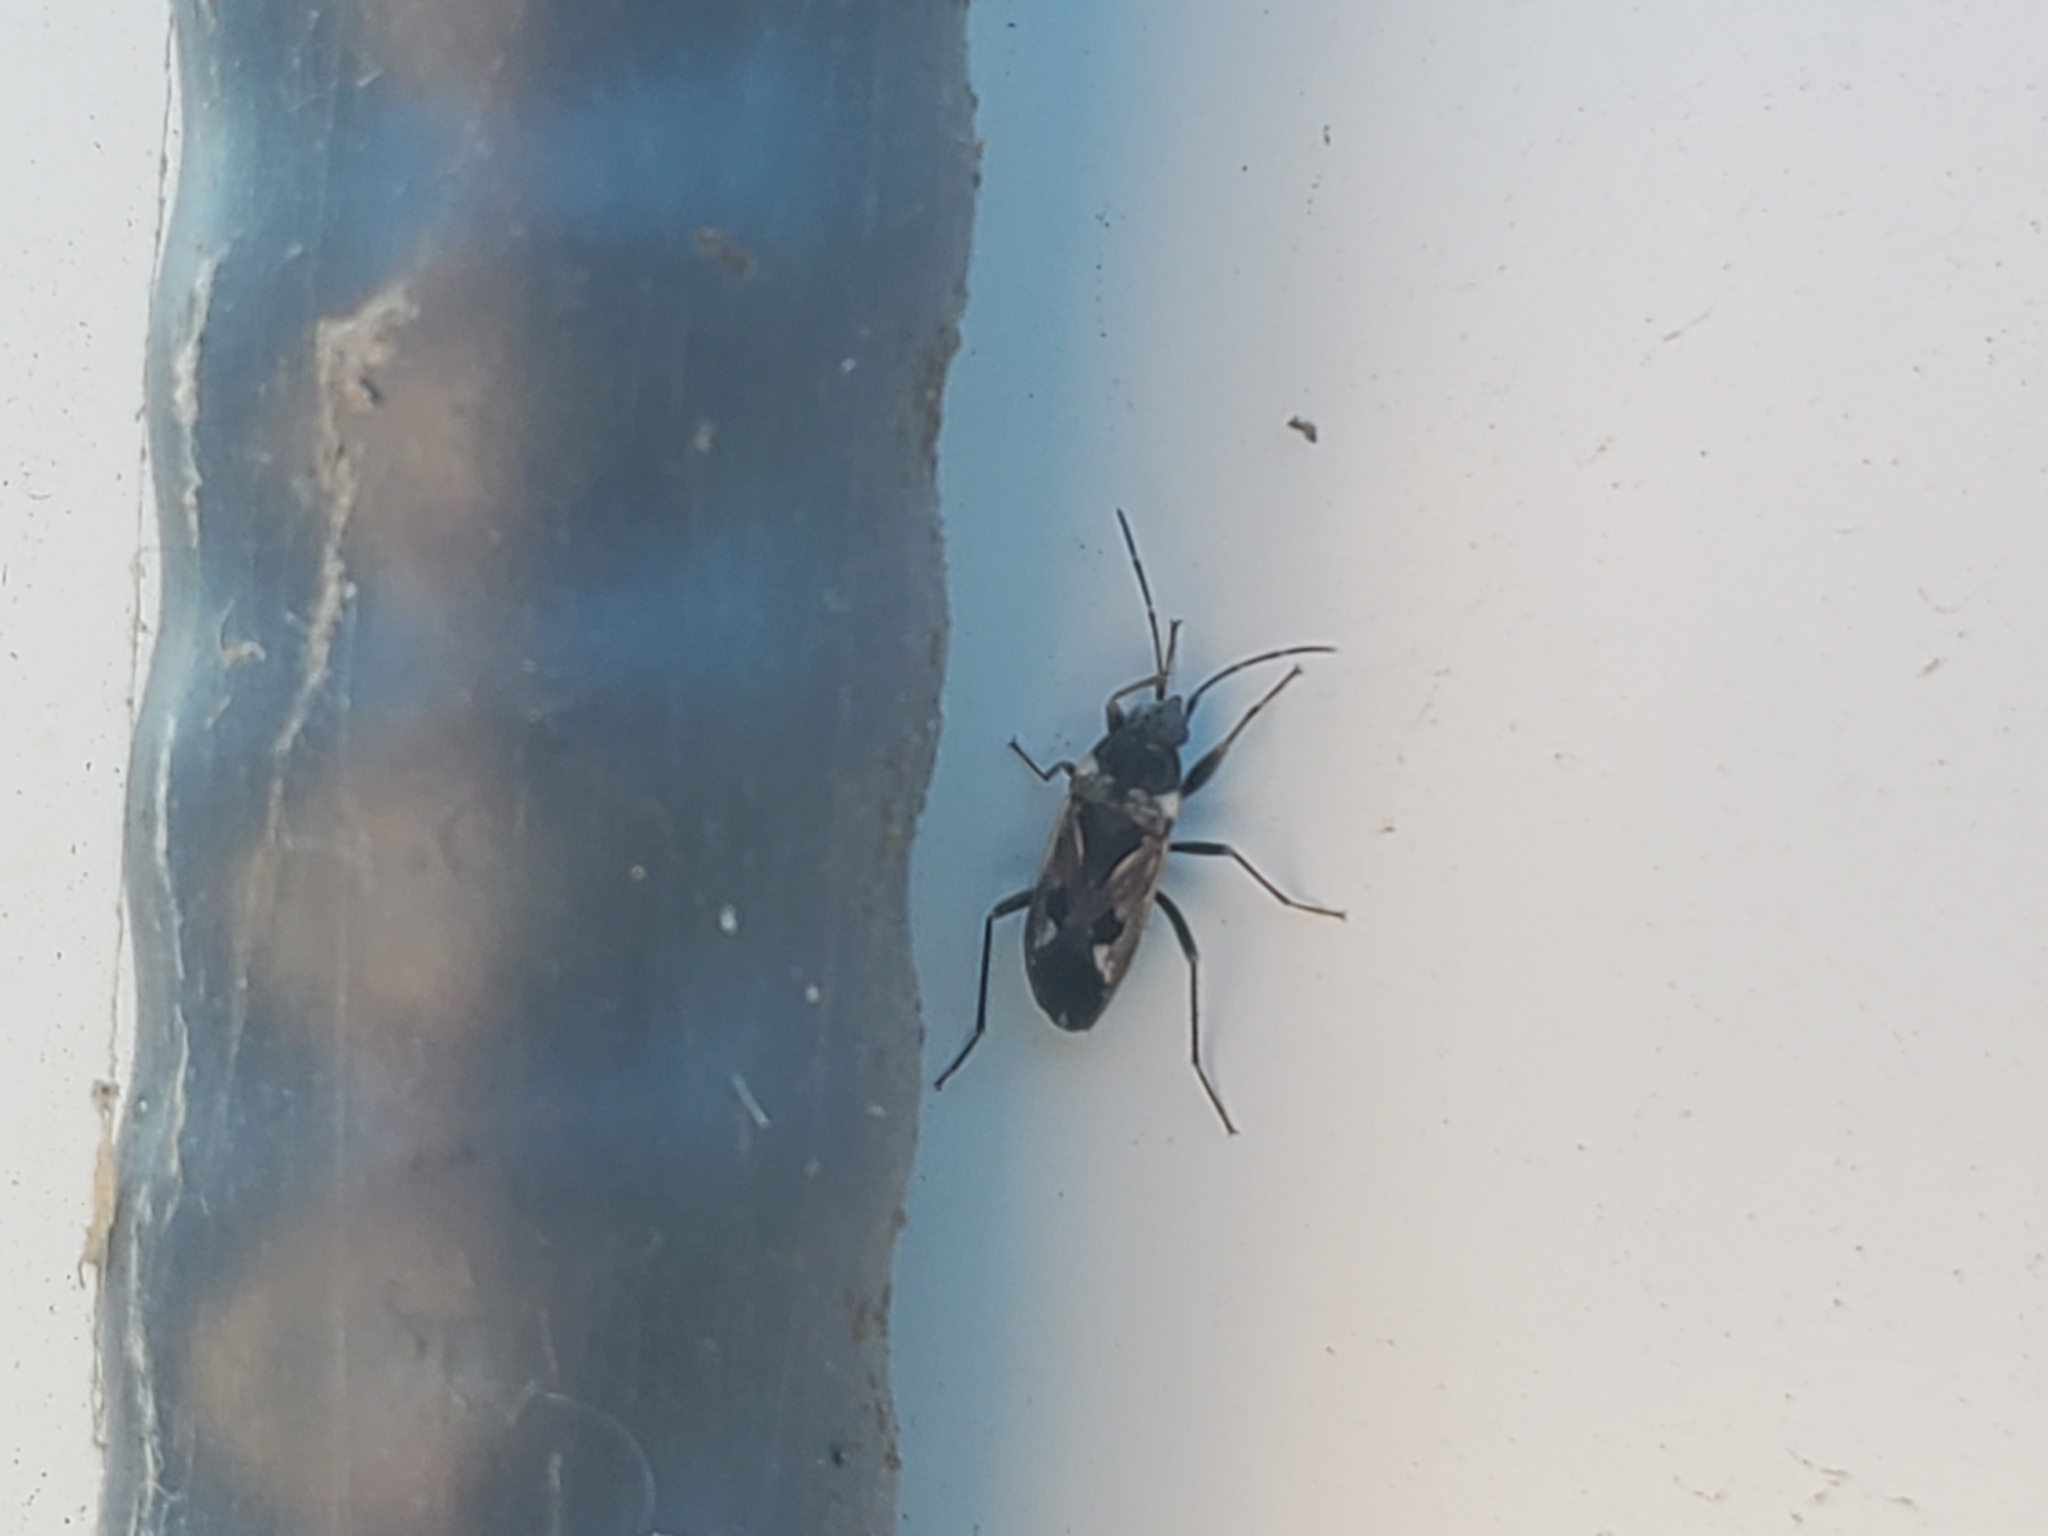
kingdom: Animalia
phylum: Arthropoda
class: Insecta
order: Hemiptera
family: Rhyparochromidae
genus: Rhyparochromus
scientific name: Rhyparochromus vulgaris
